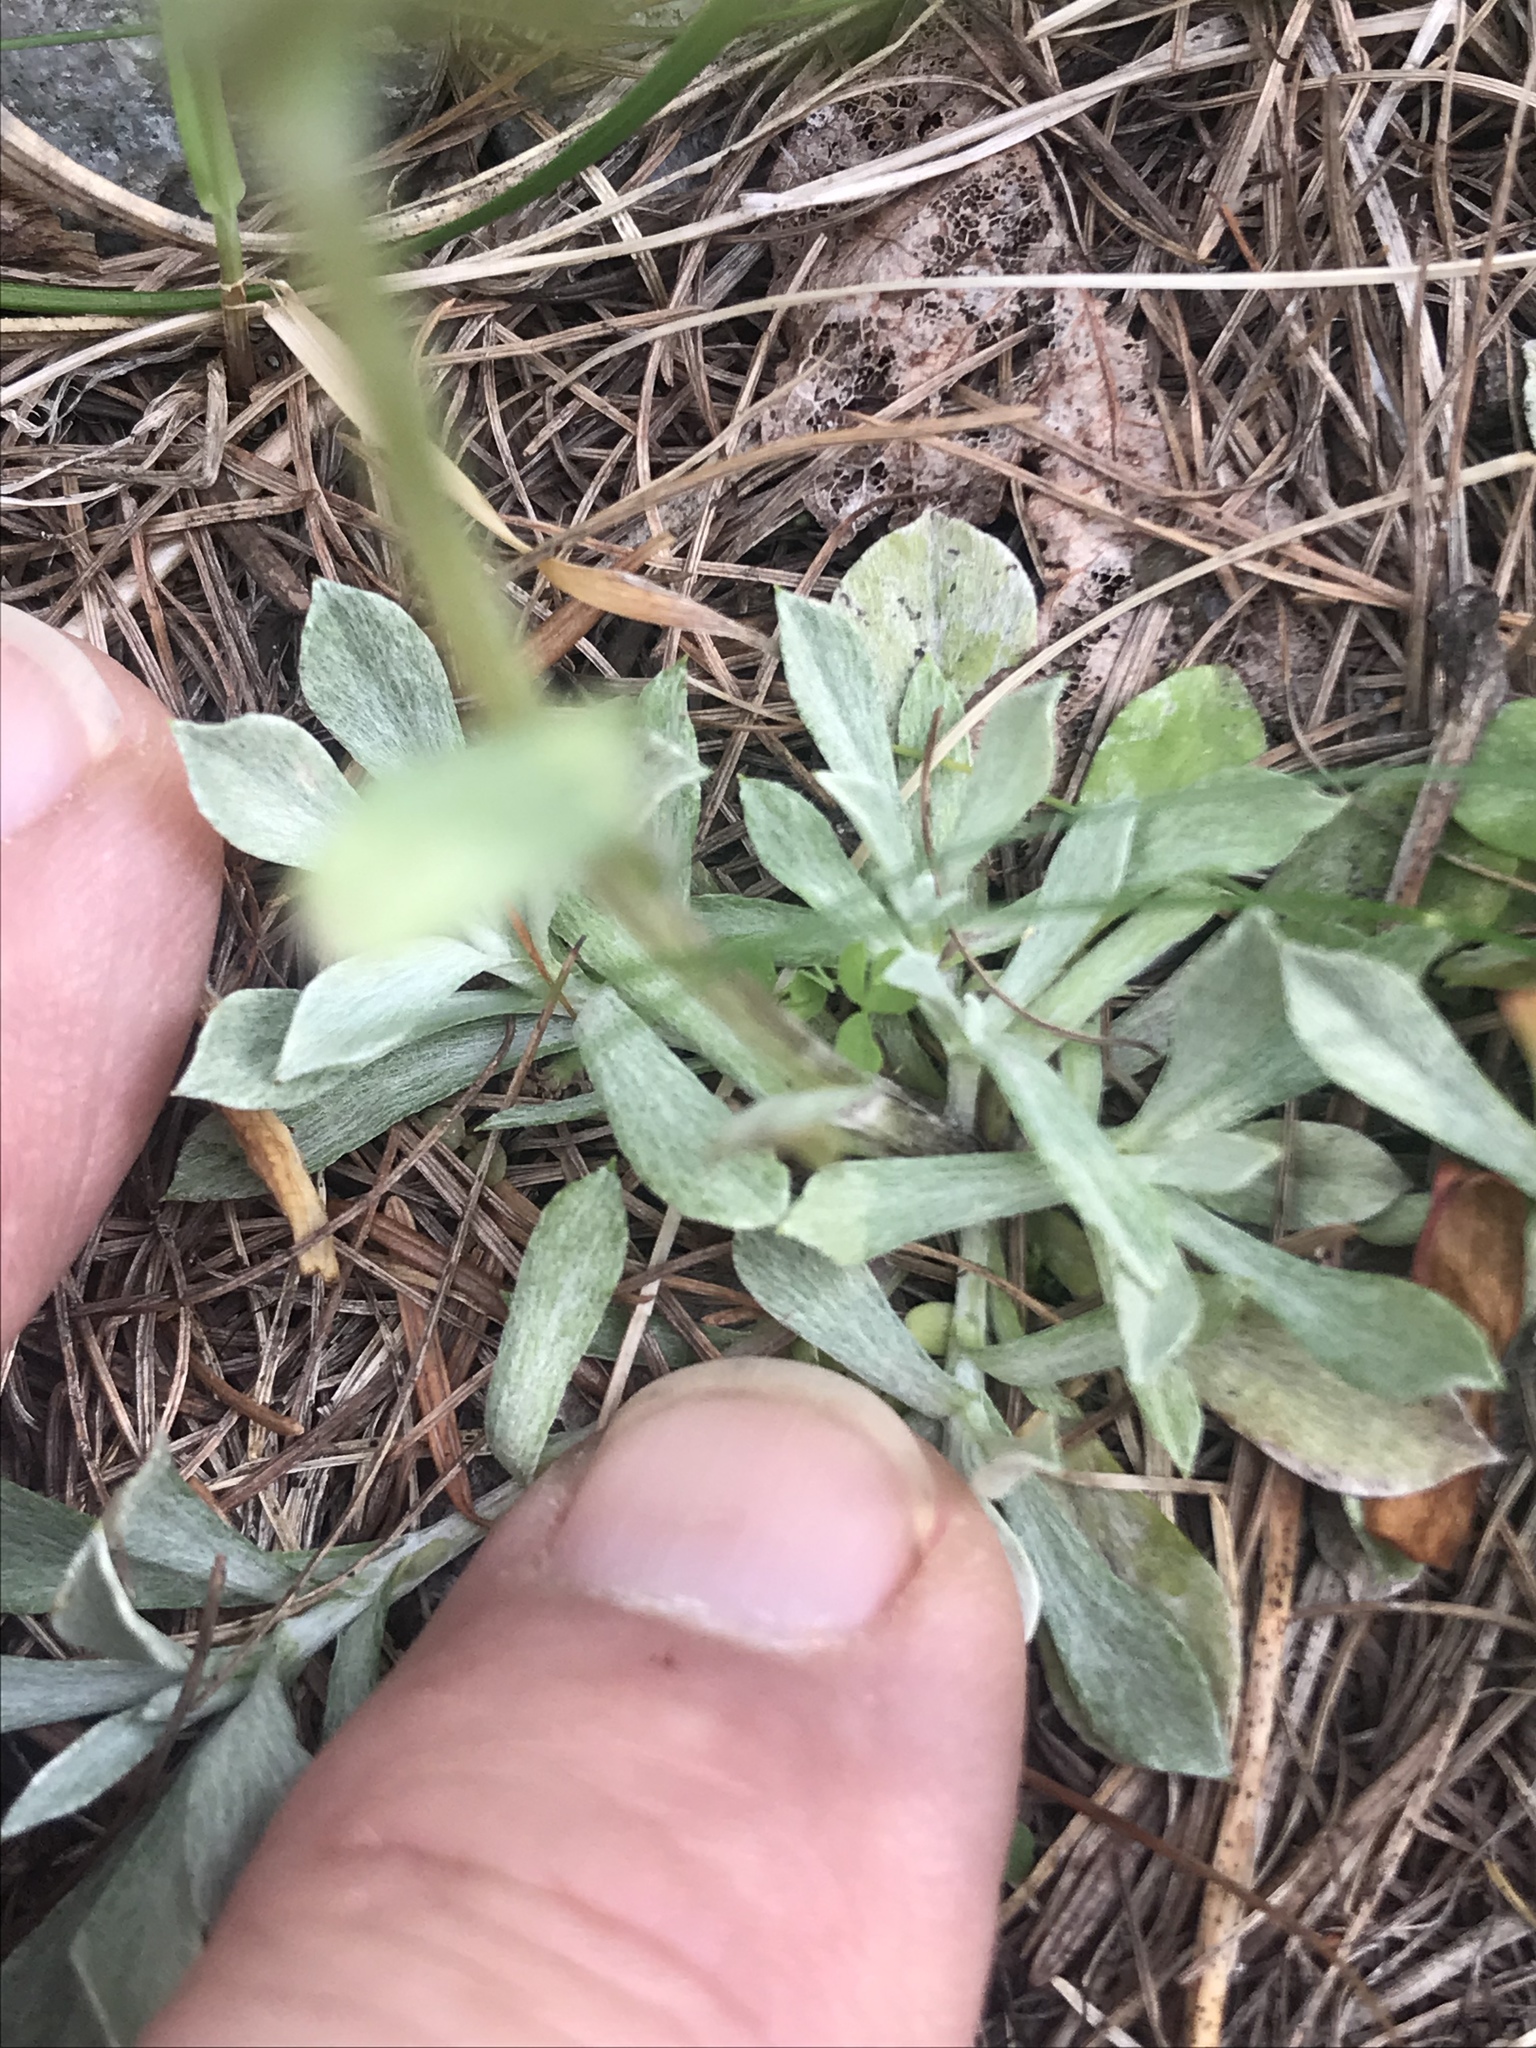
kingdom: Plantae
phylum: Tracheophyta
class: Magnoliopsida
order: Asterales
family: Asteraceae
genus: Antennaria
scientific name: Antennaria rosea
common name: Rosy pussytoes
